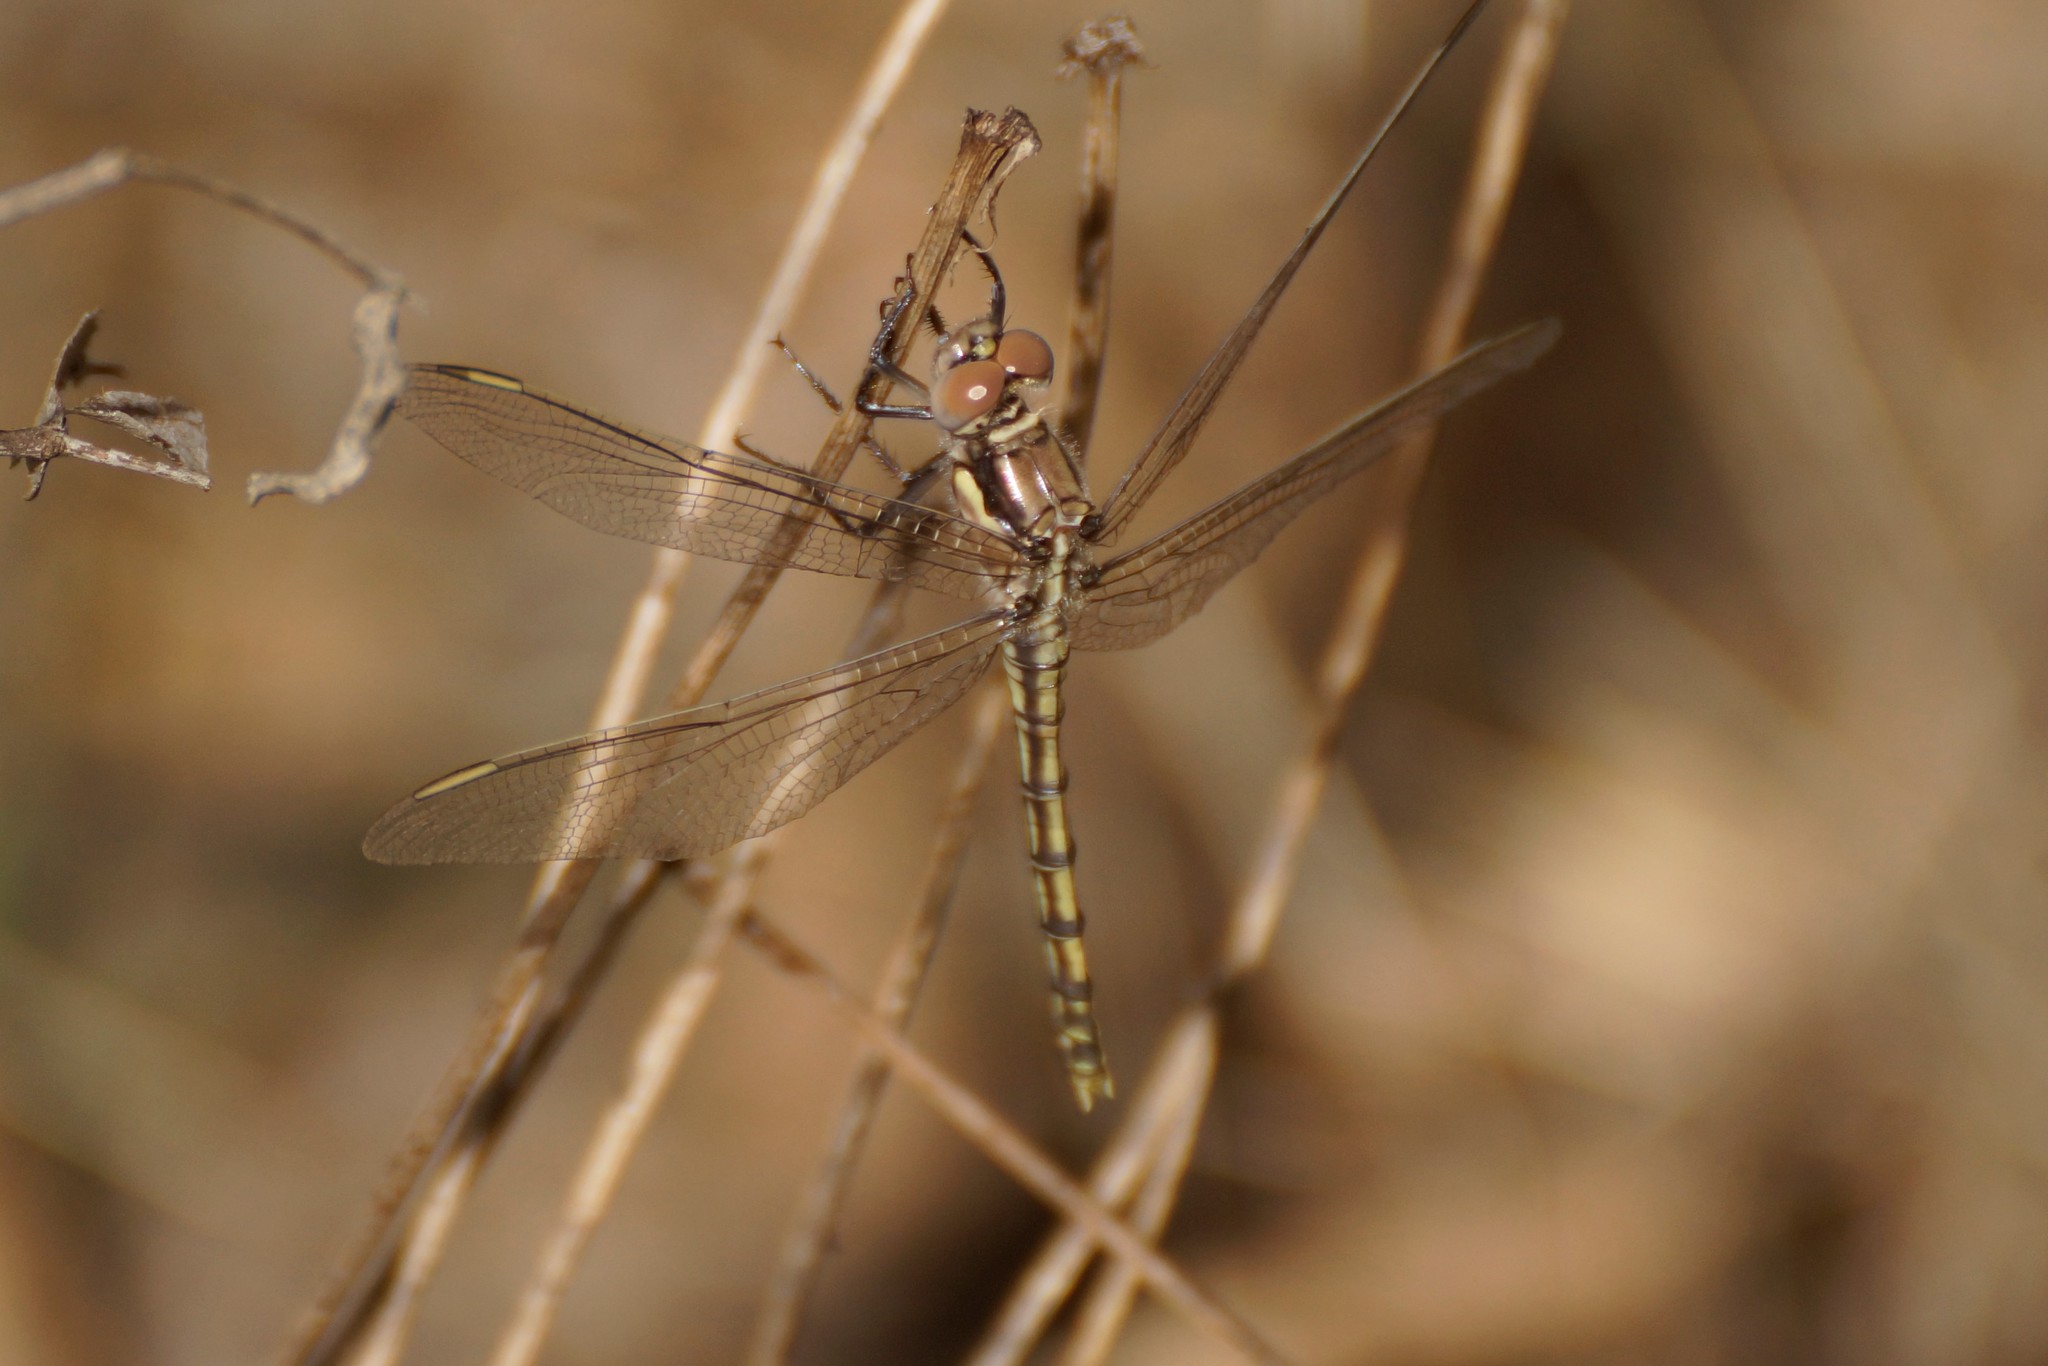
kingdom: Animalia
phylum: Arthropoda
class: Insecta
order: Odonata
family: Libellulidae
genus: Orthetrum
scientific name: Orthetrum caledonicum
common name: Blue skimmer
